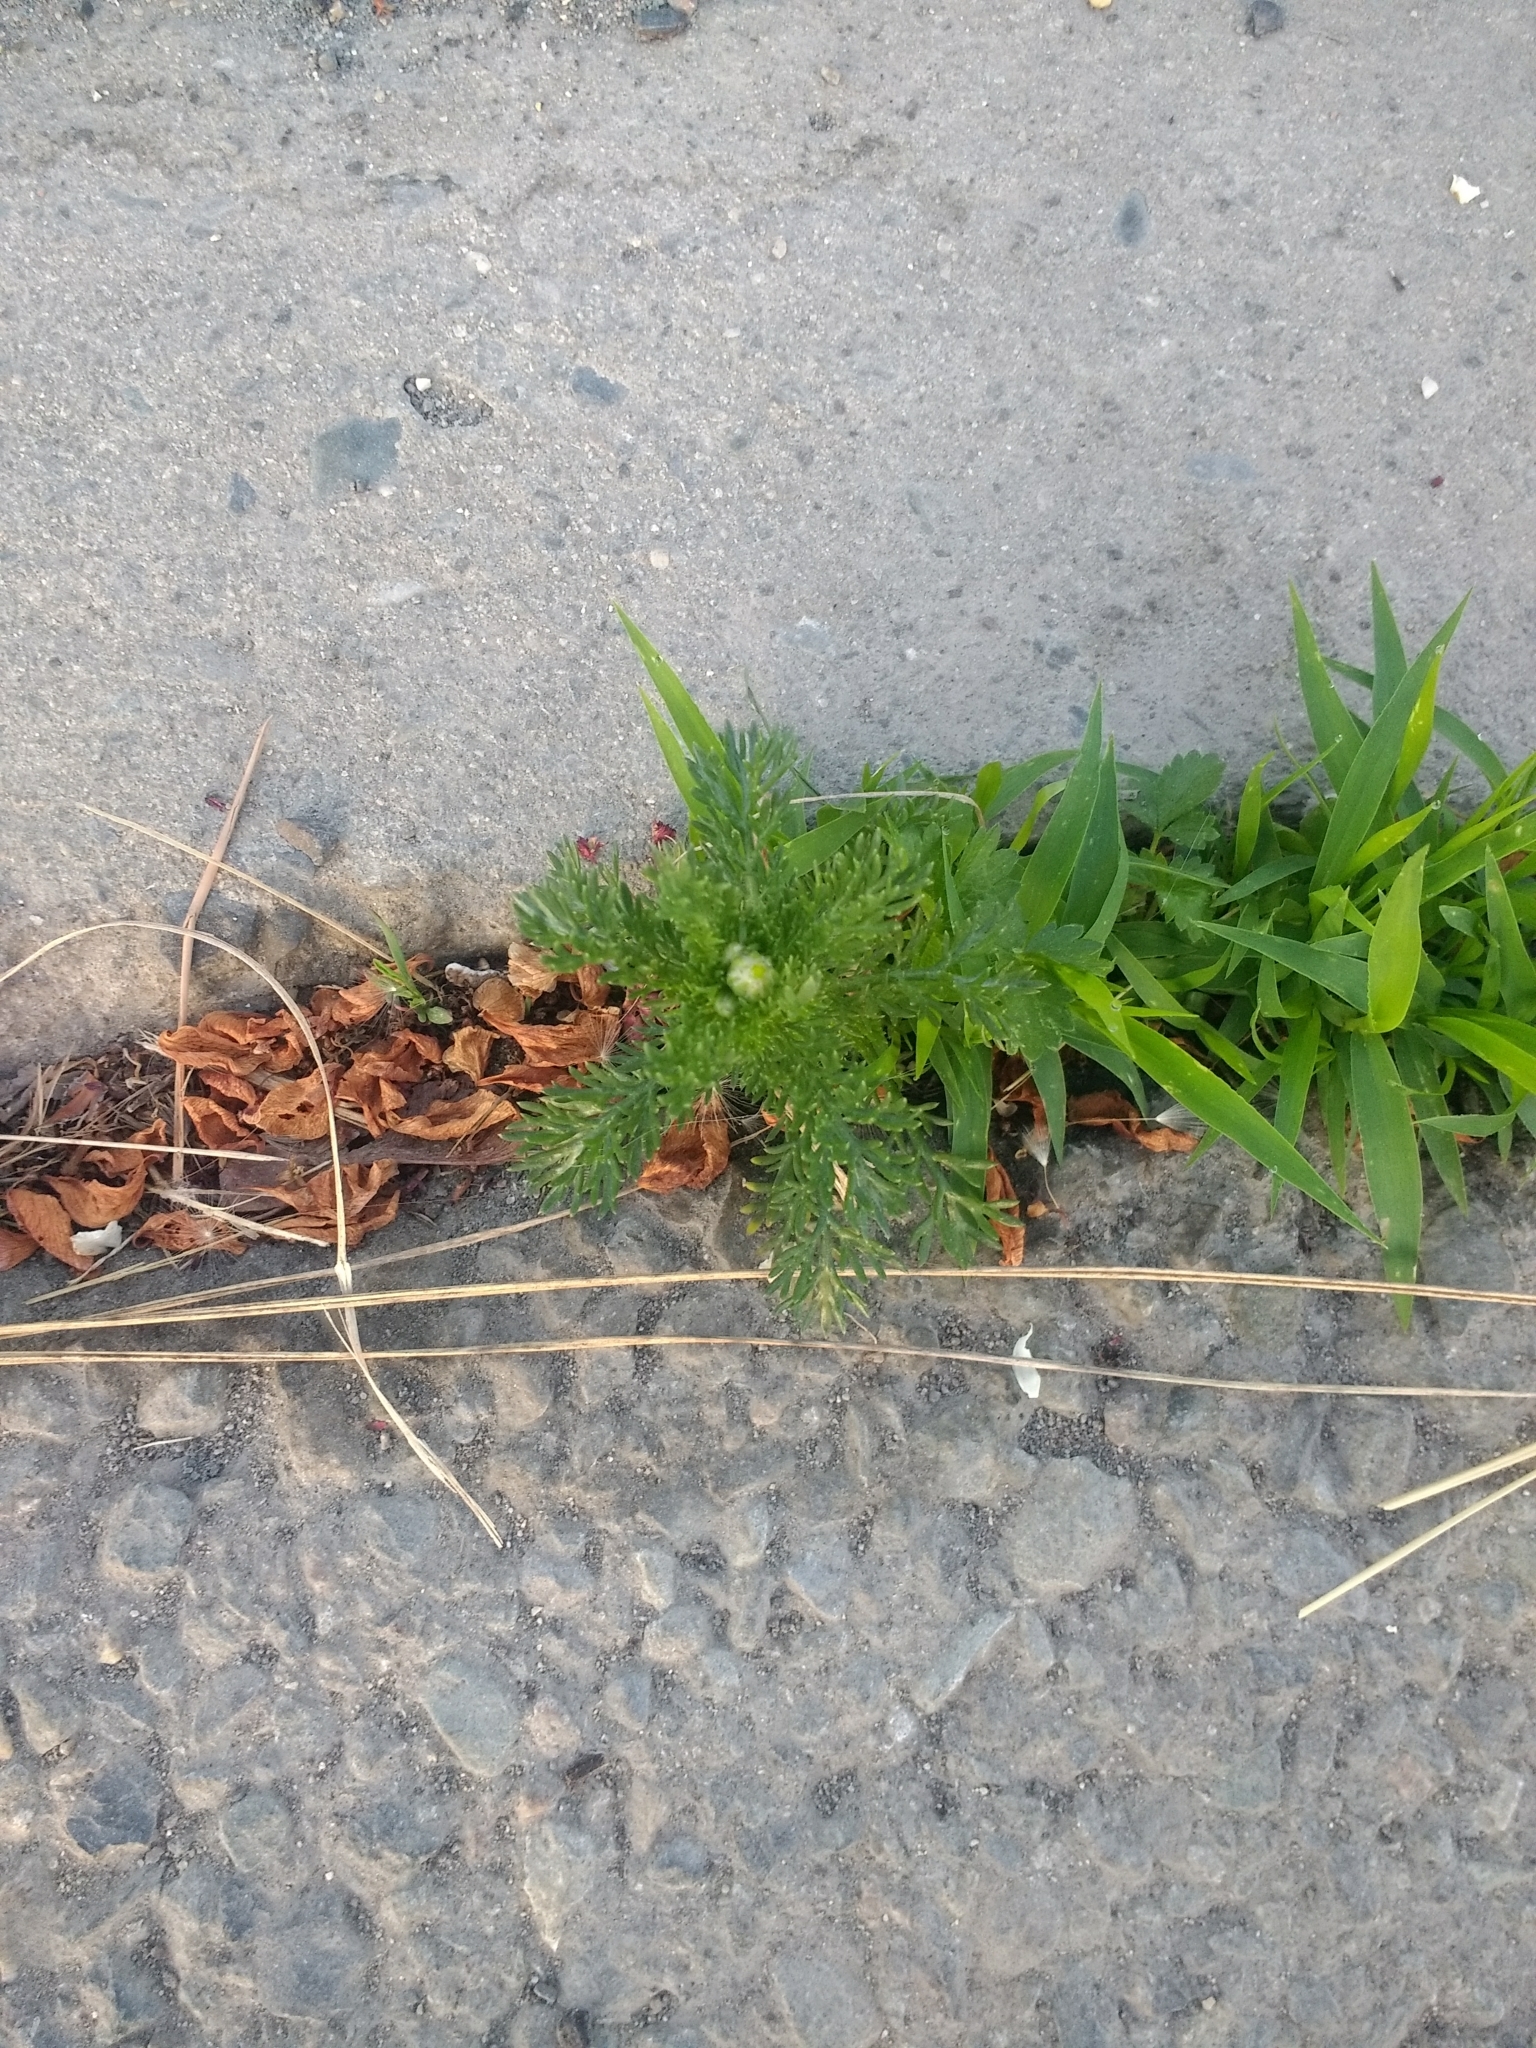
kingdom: Plantae
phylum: Tracheophyta
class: Magnoliopsida
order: Asterales
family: Asteraceae
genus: Matricaria
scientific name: Matricaria discoidea
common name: Disc mayweed
